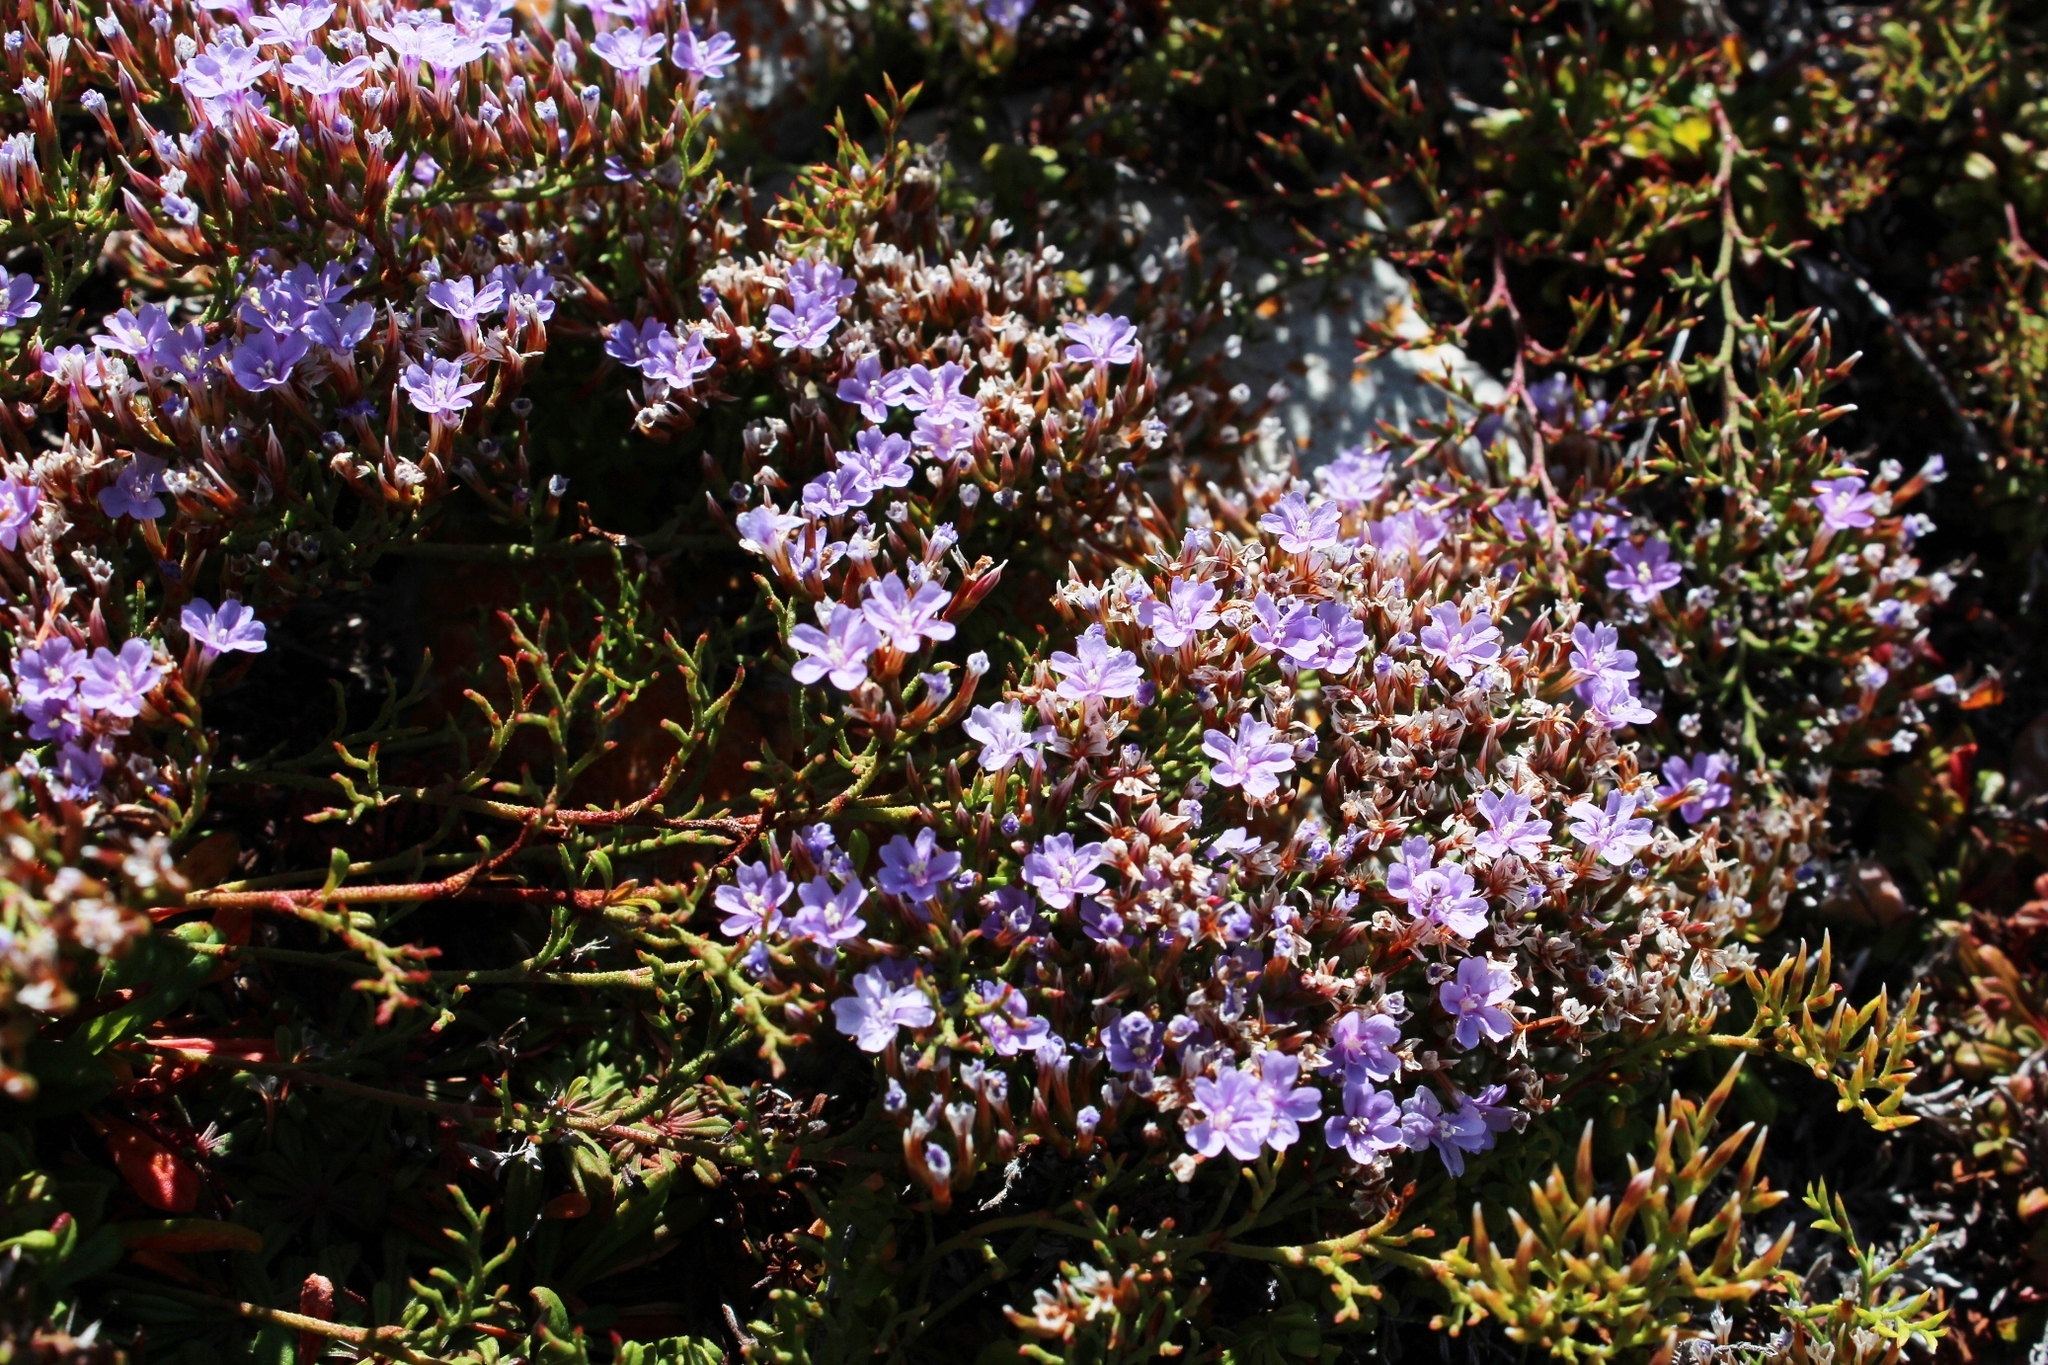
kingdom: Plantae
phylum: Tracheophyta
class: Magnoliopsida
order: Caryophyllales
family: Plumbaginaceae
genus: Limonium
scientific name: Limonium scabrum
